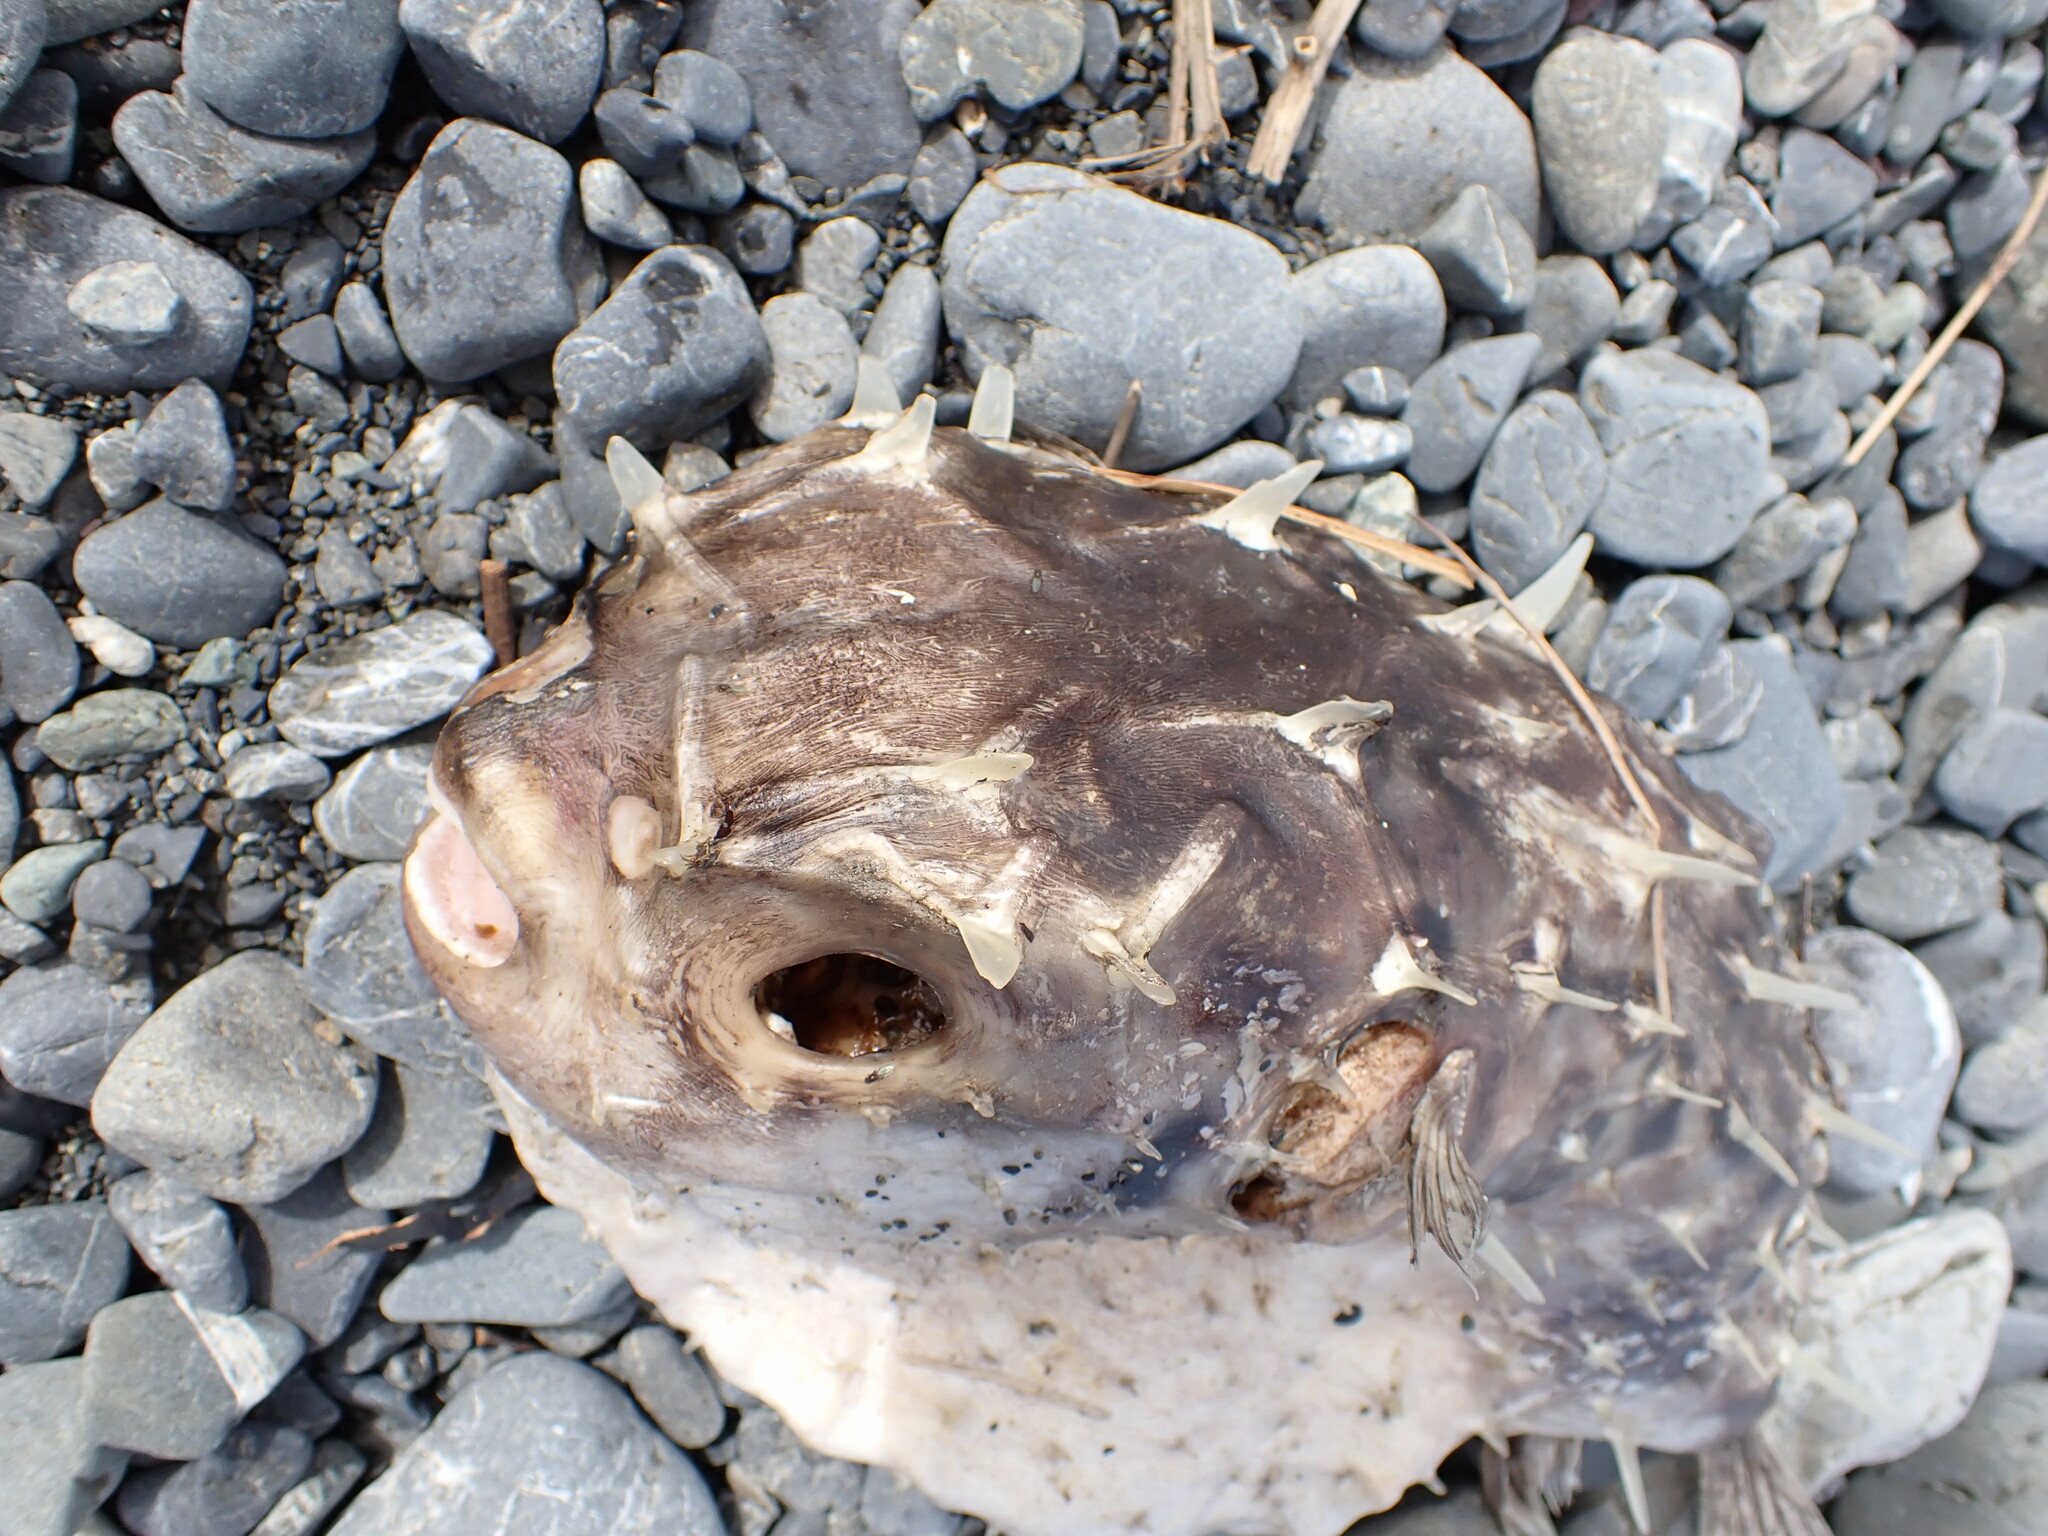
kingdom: Animalia
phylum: Chordata
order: Tetraodontiformes
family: Diodontidae
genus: Allomycterus
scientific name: Allomycterus pilatus
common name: No common name
